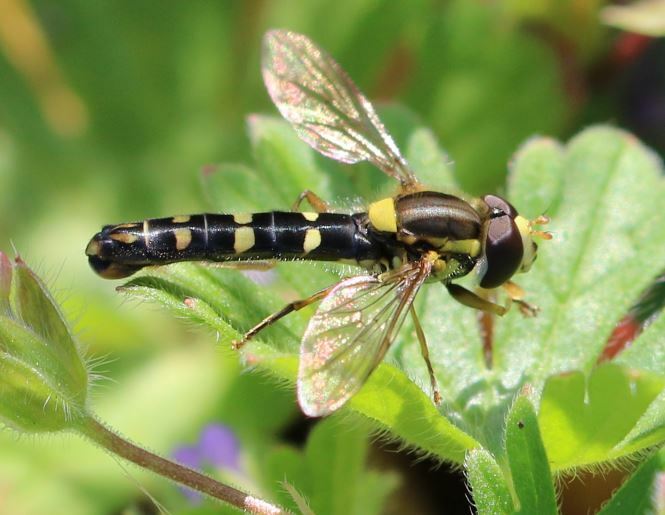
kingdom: Animalia
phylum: Arthropoda
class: Insecta
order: Diptera
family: Syrphidae
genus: Sphaerophoria
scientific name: Sphaerophoria scripta
